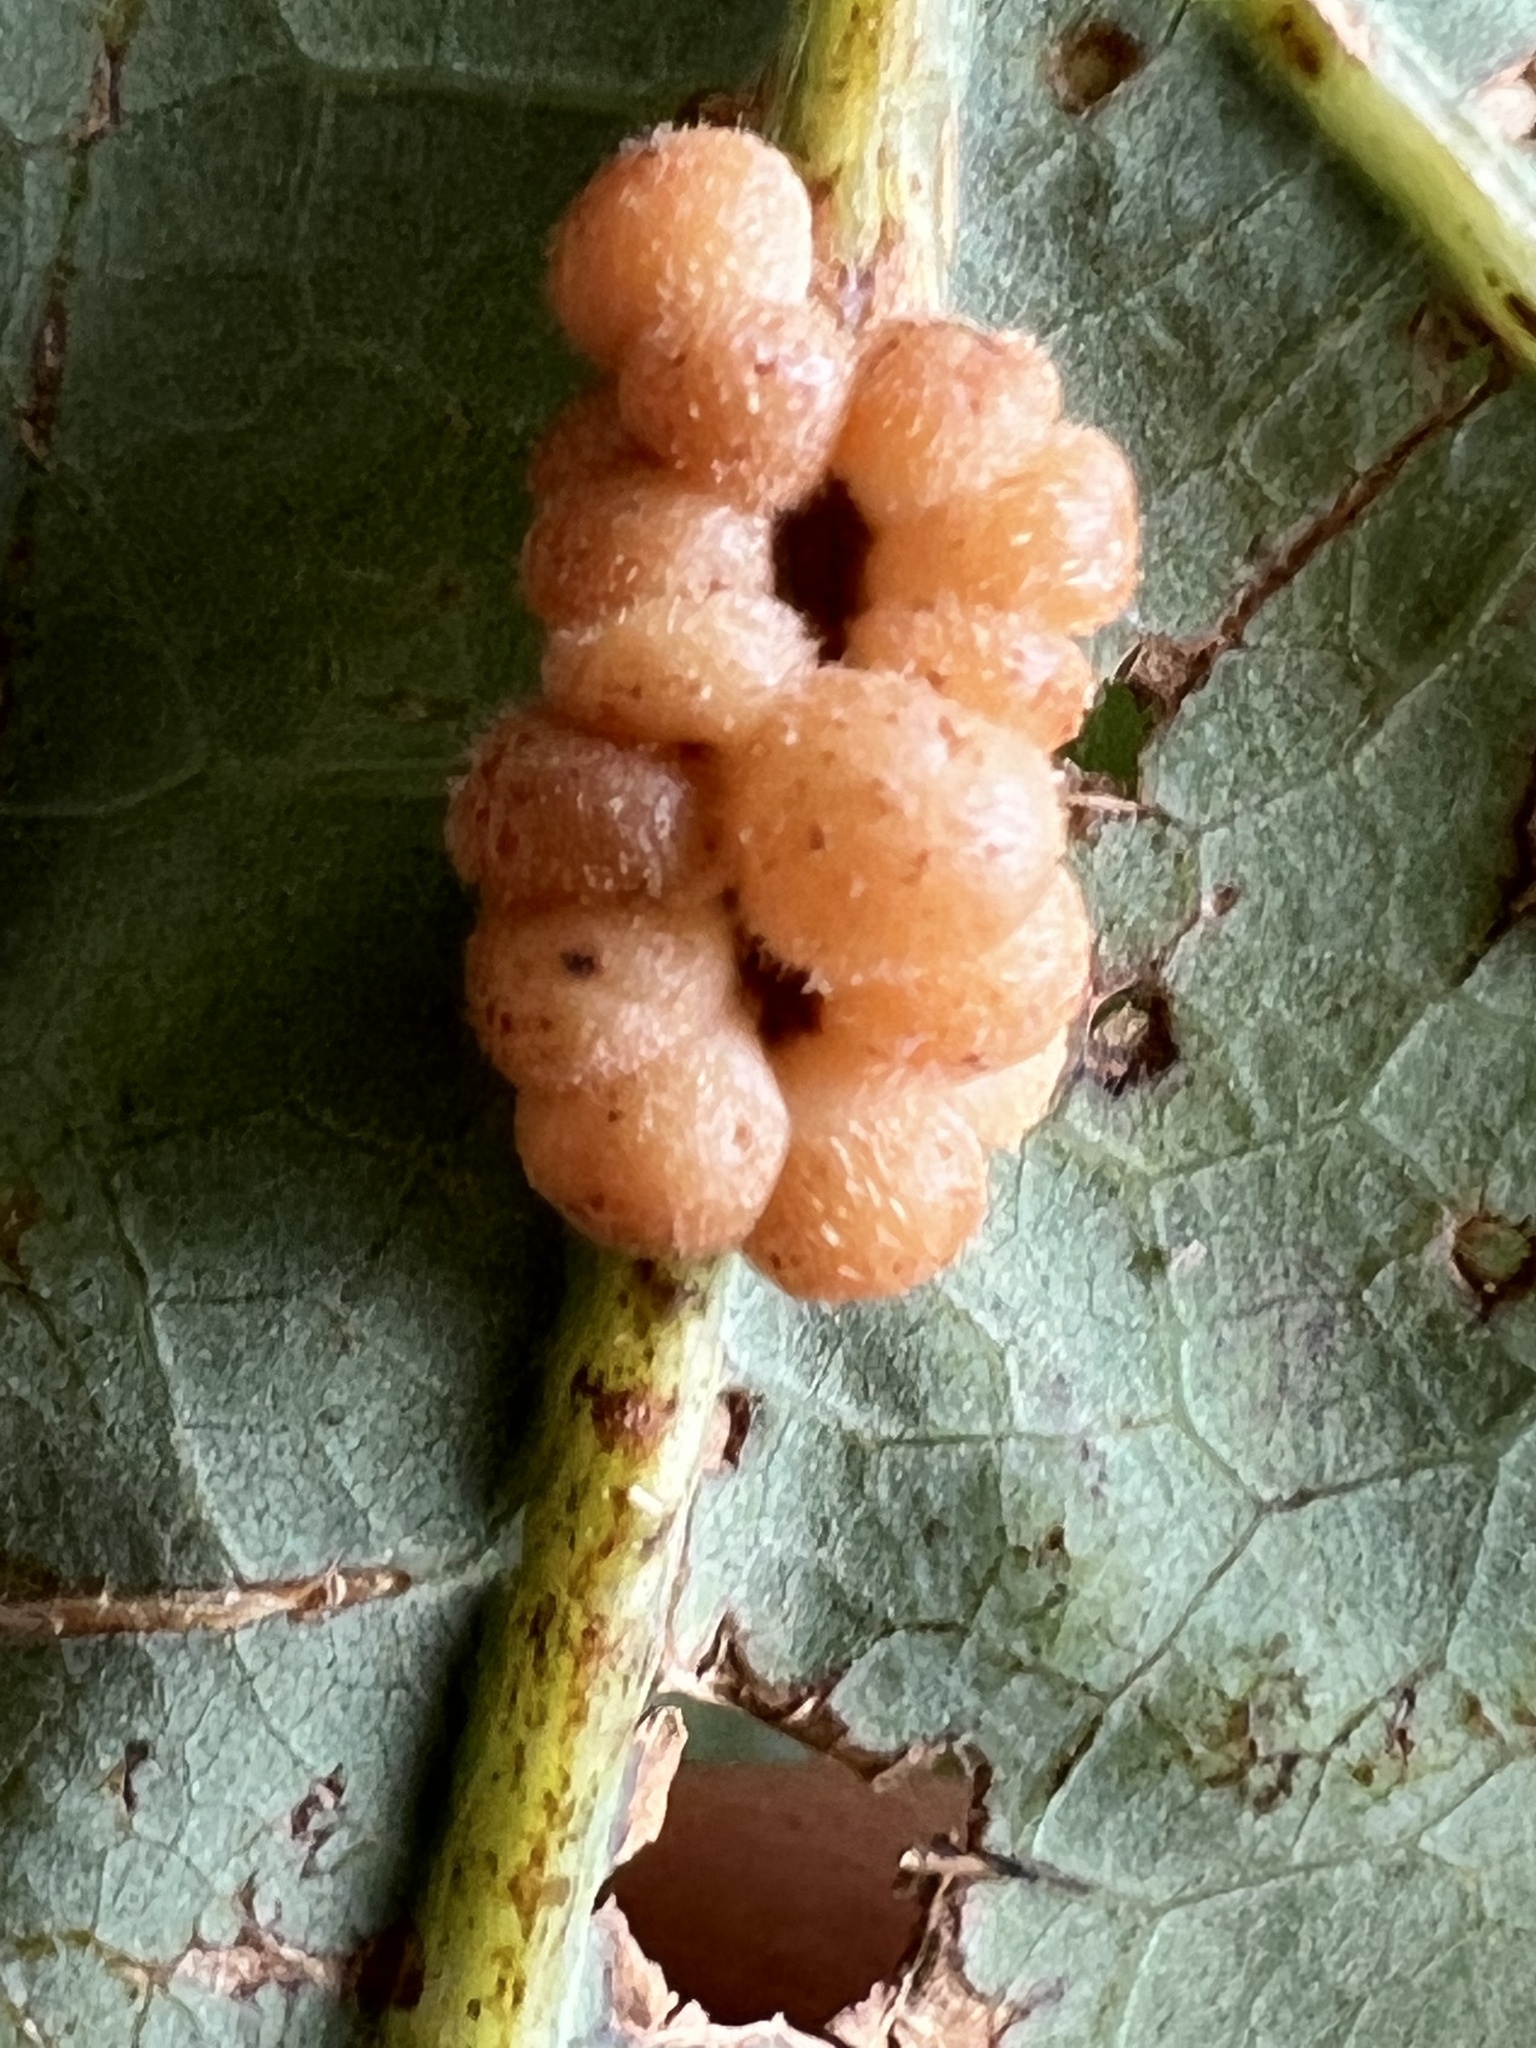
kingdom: Animalia
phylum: Arthropoda
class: Insecta
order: Hymenoptera
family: Cynipidae
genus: Andricus
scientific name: Andricus
